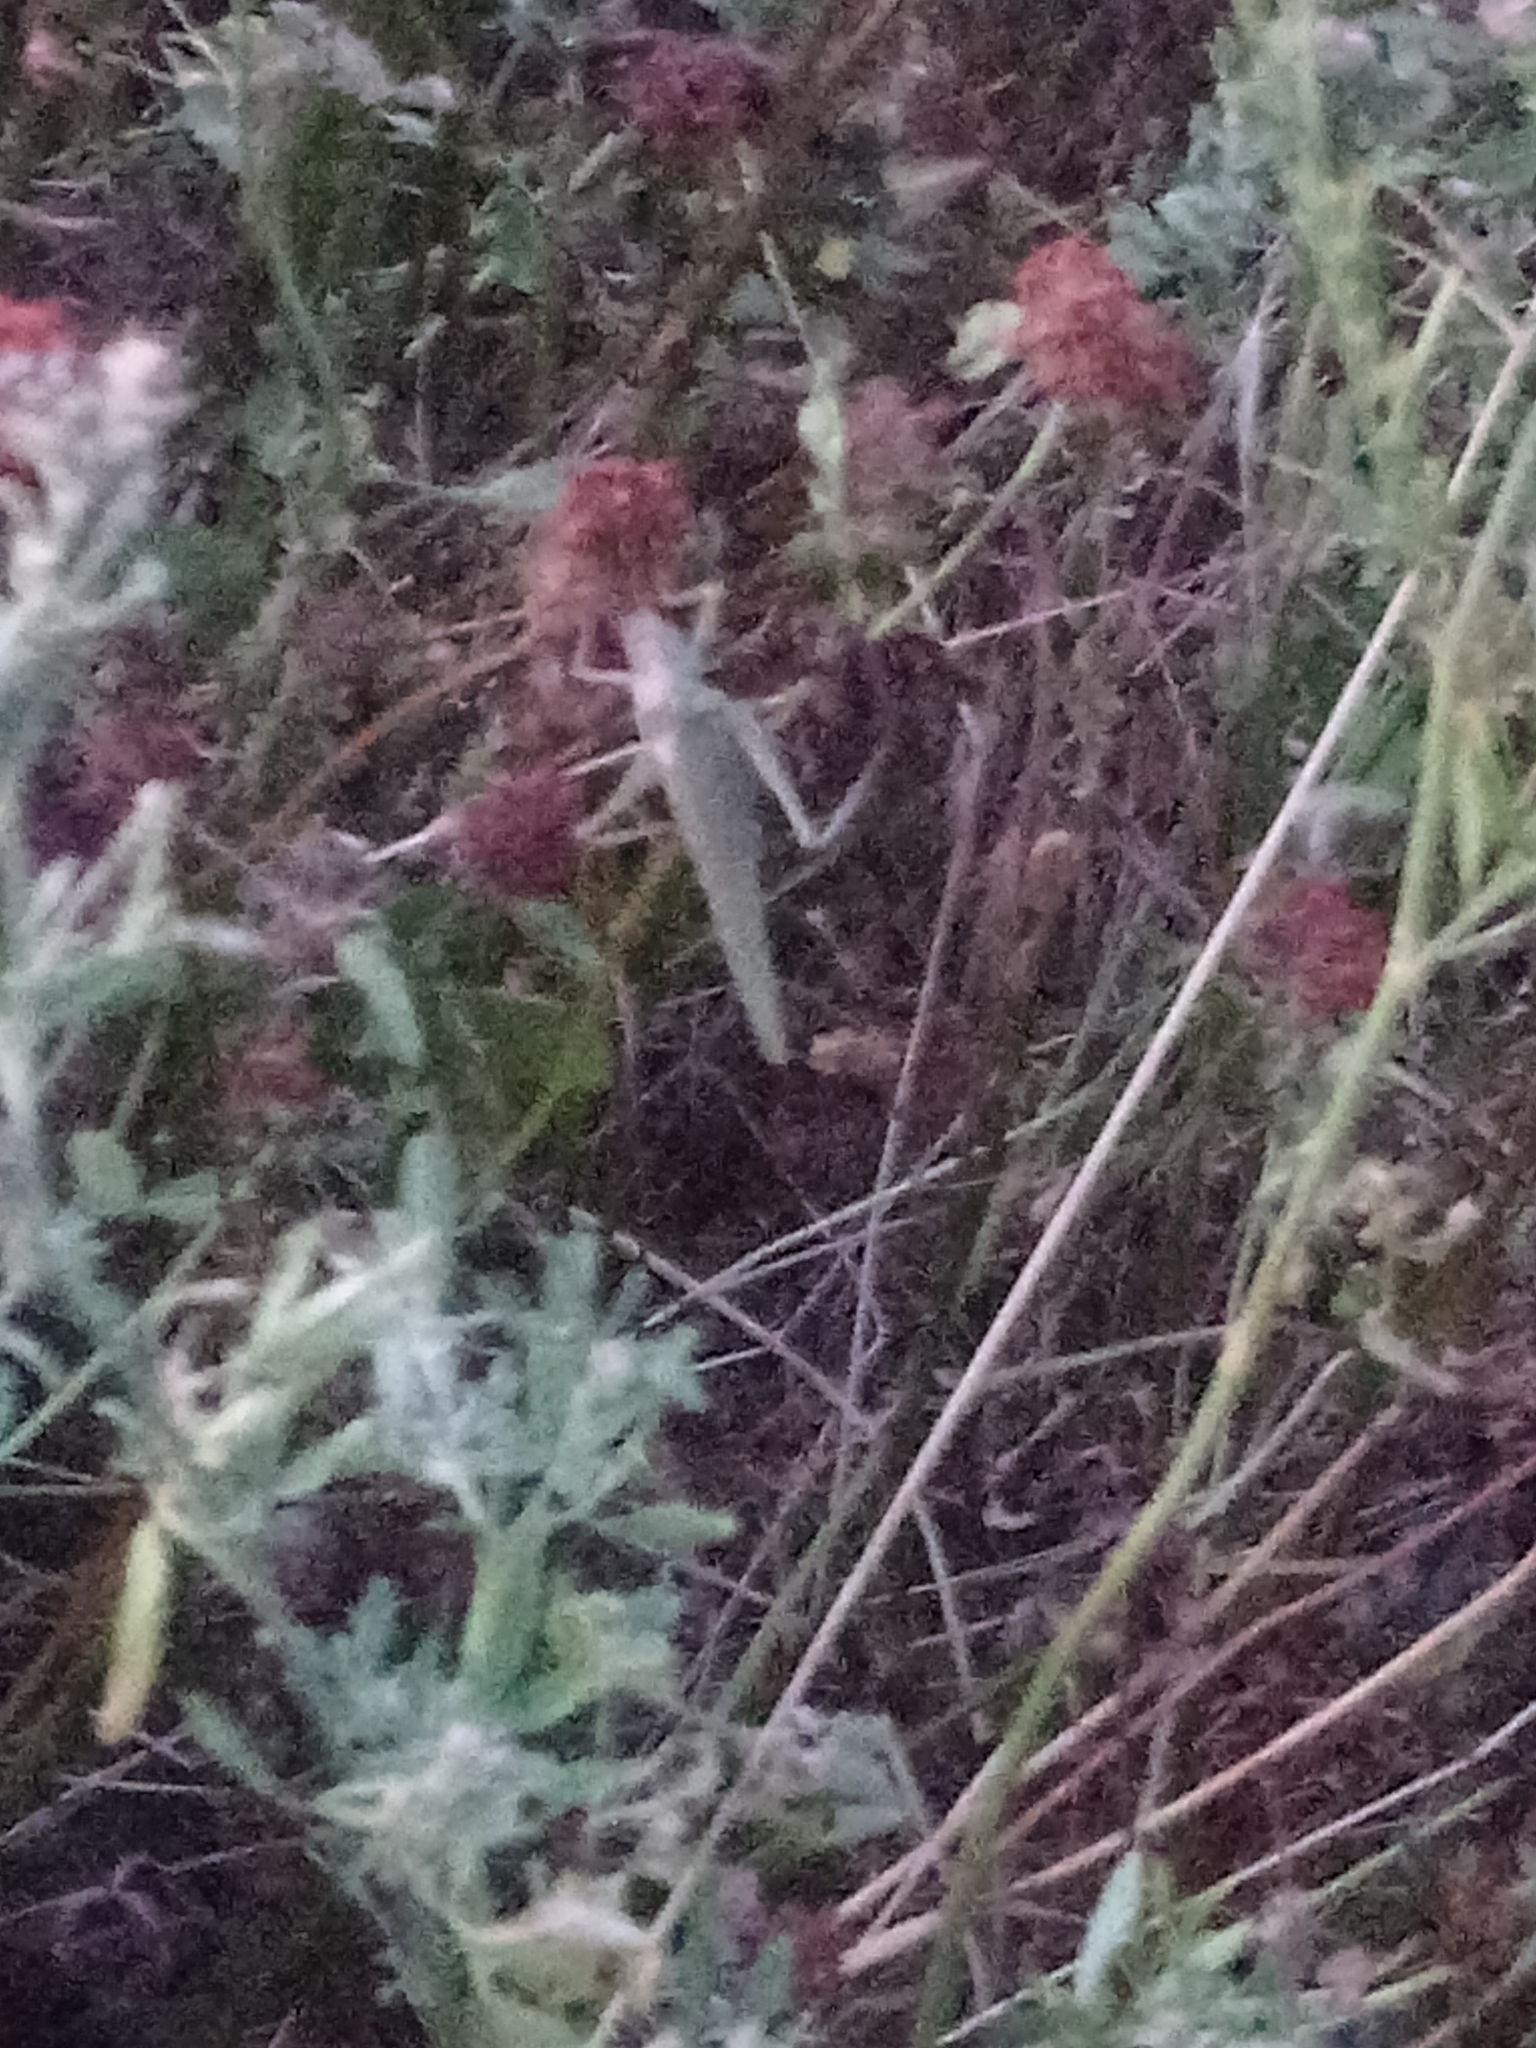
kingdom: Animalia
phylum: Arthropoda
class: Insecta
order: Orthoptera
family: Tettigoniidae
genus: Tettigonia
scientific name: Tettigonia viridissima
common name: Great green bush-cricket
